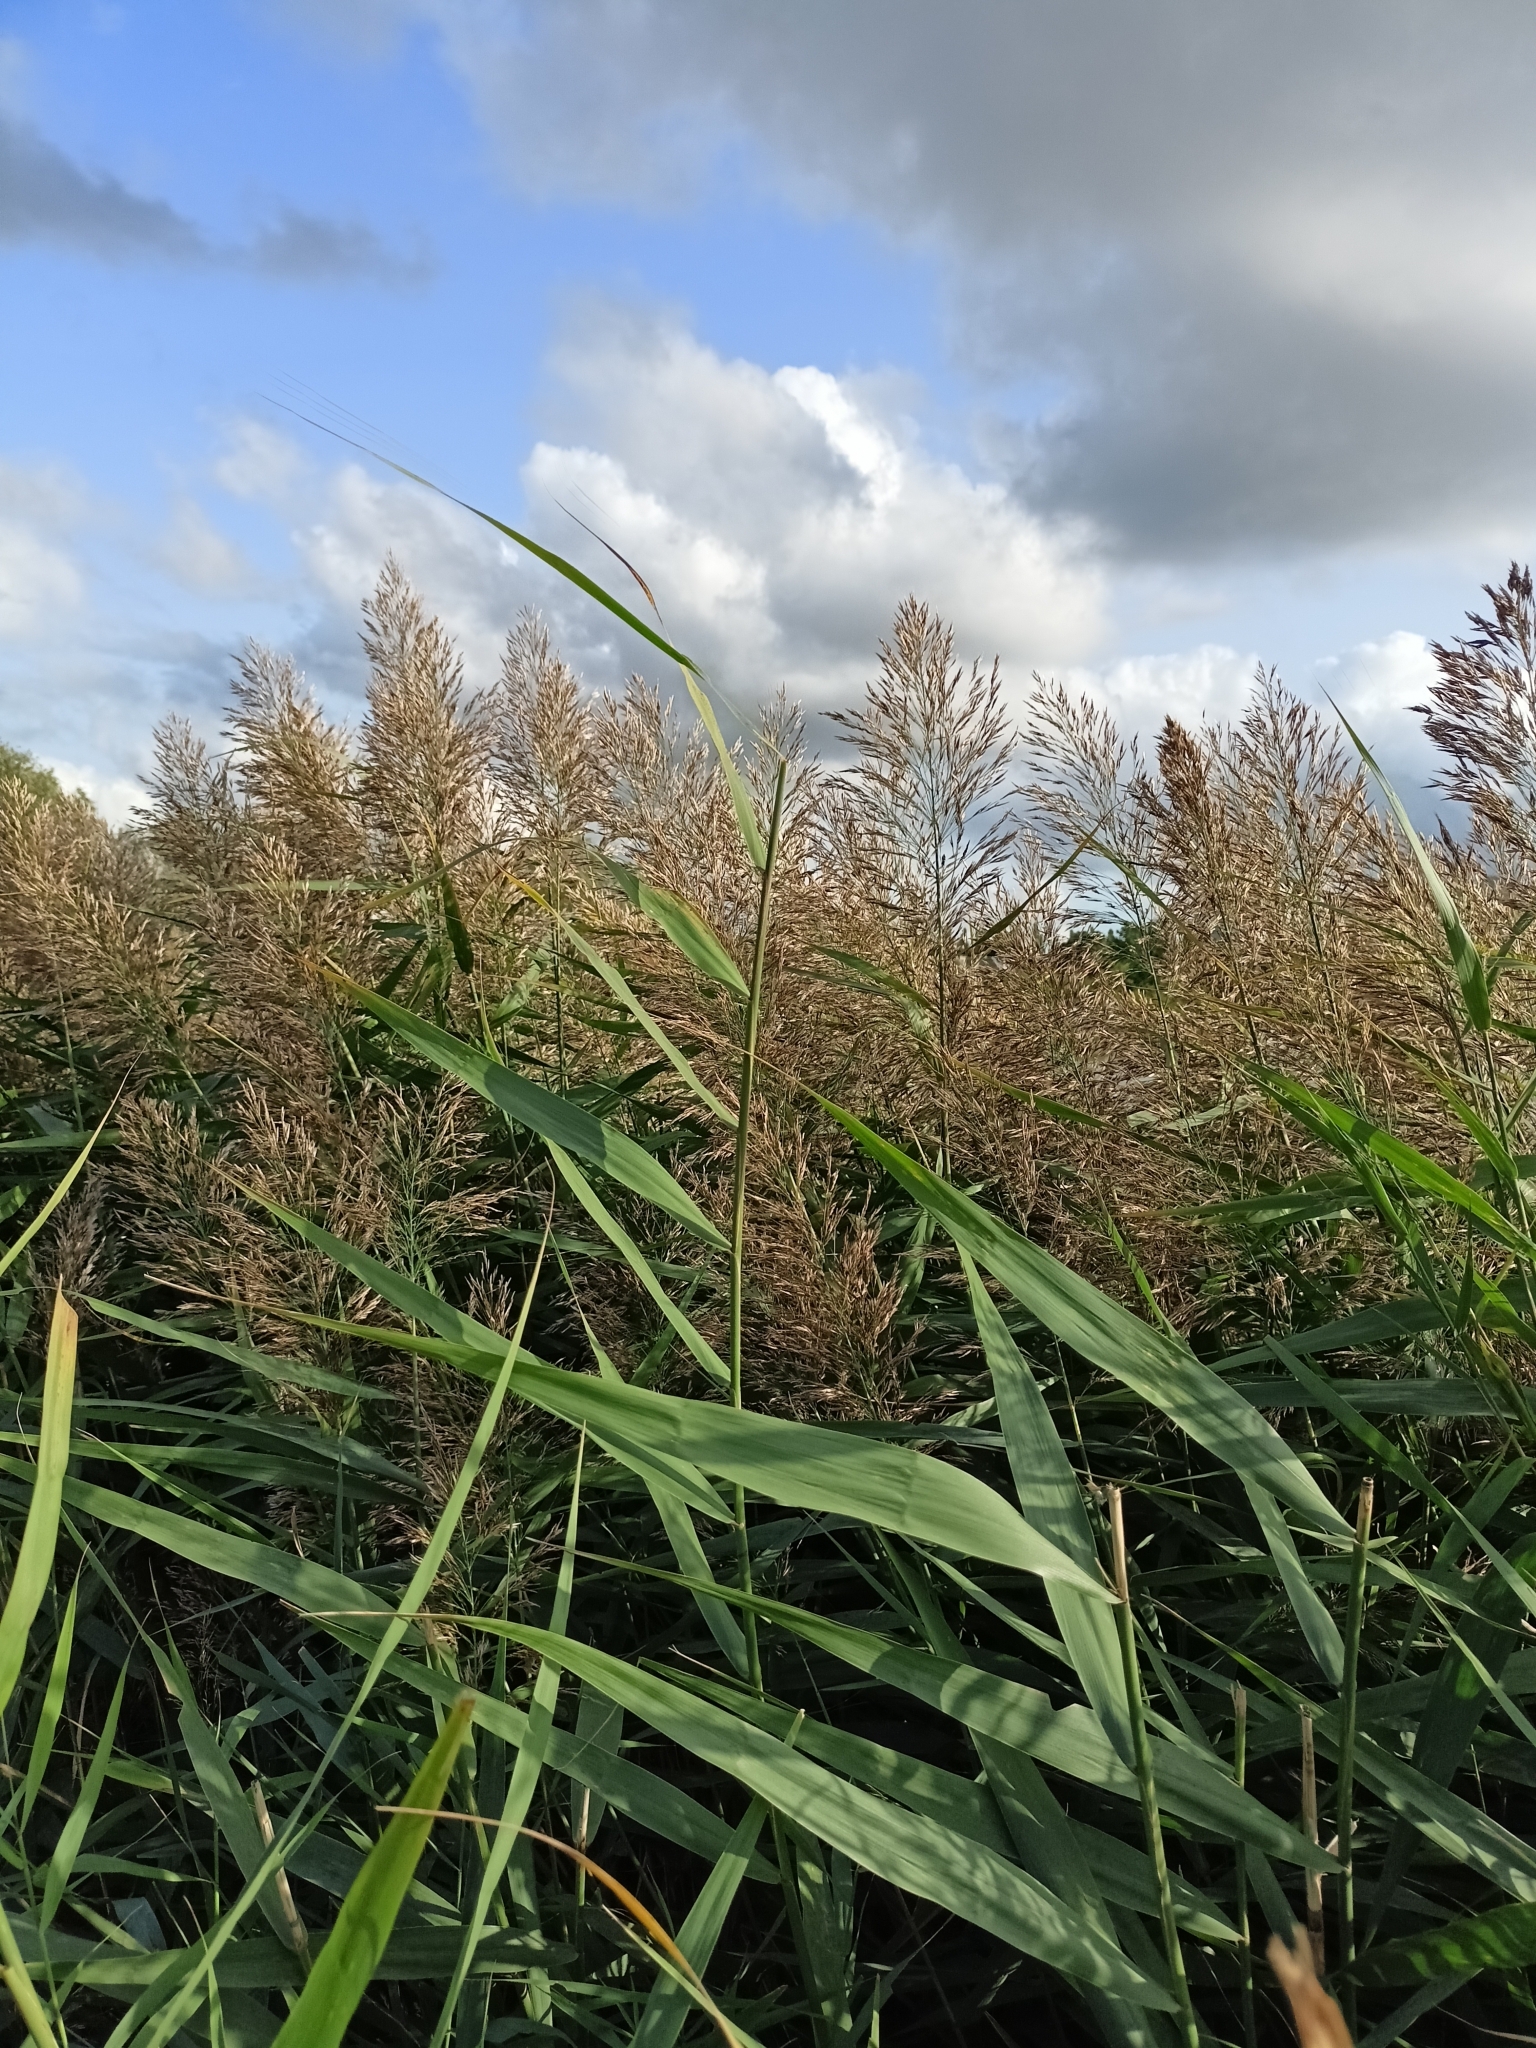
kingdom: Plantae
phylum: Tracheophyta
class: Liliopsida
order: Poales
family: Poaceae
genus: Phragmites
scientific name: Phragmites australis
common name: Common reed
